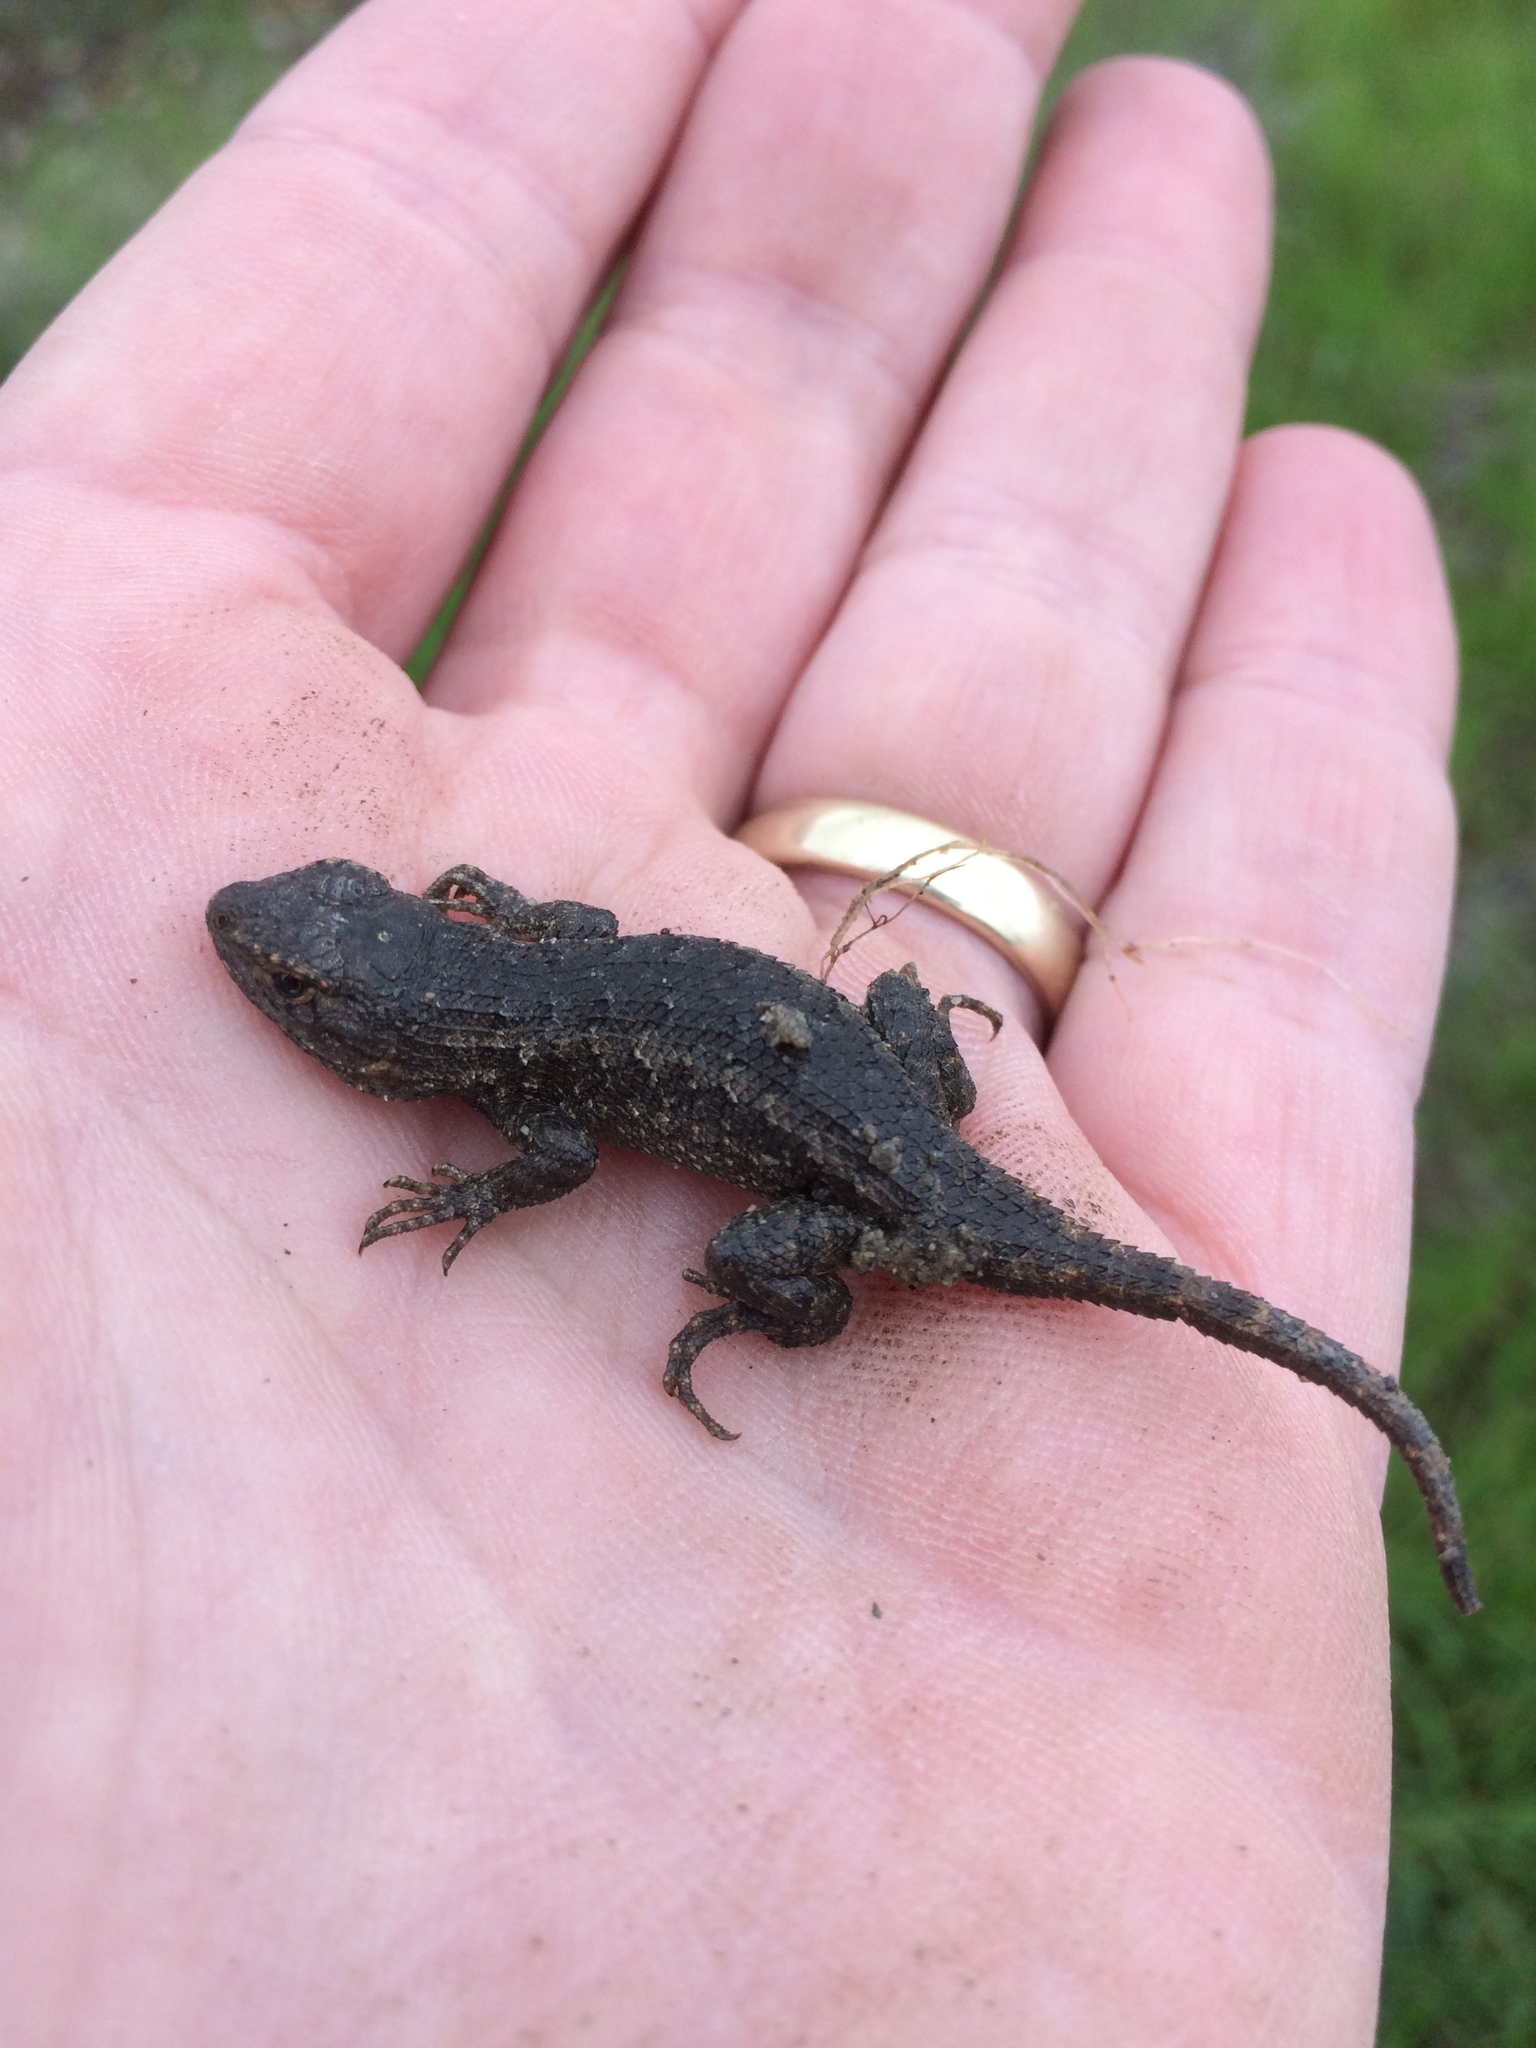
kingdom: Animalia
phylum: Chordata
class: Squamata
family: Phrynosomatidae
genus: Sceloporus
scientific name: Sceloporus occidentalis
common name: Western fence lizard
